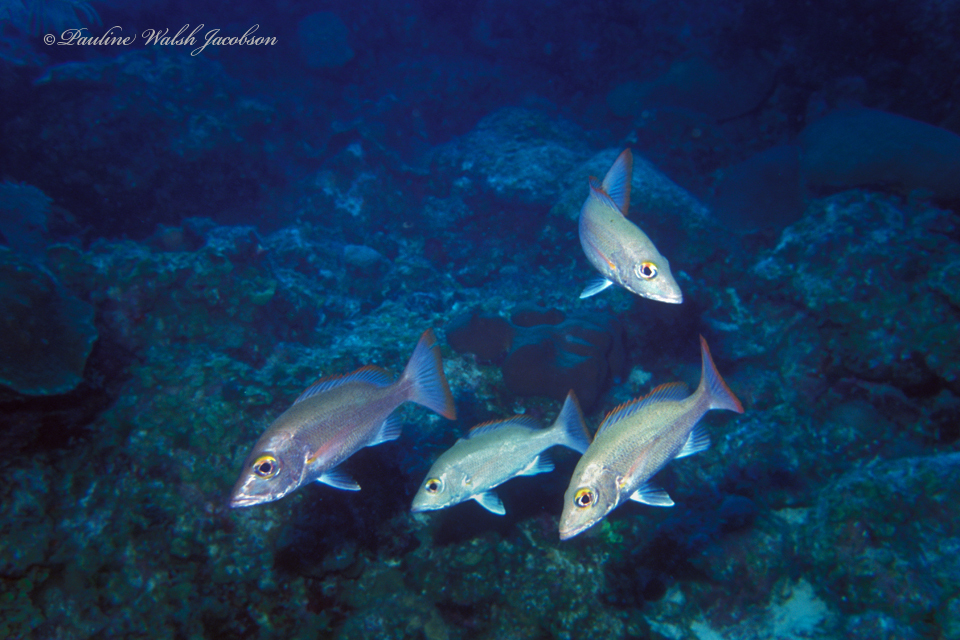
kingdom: Animalia
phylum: Chordata
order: Perciformes
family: Lutjanidae
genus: Lutjanus
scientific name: Lutjanus mahogoni
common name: Spot snapper
